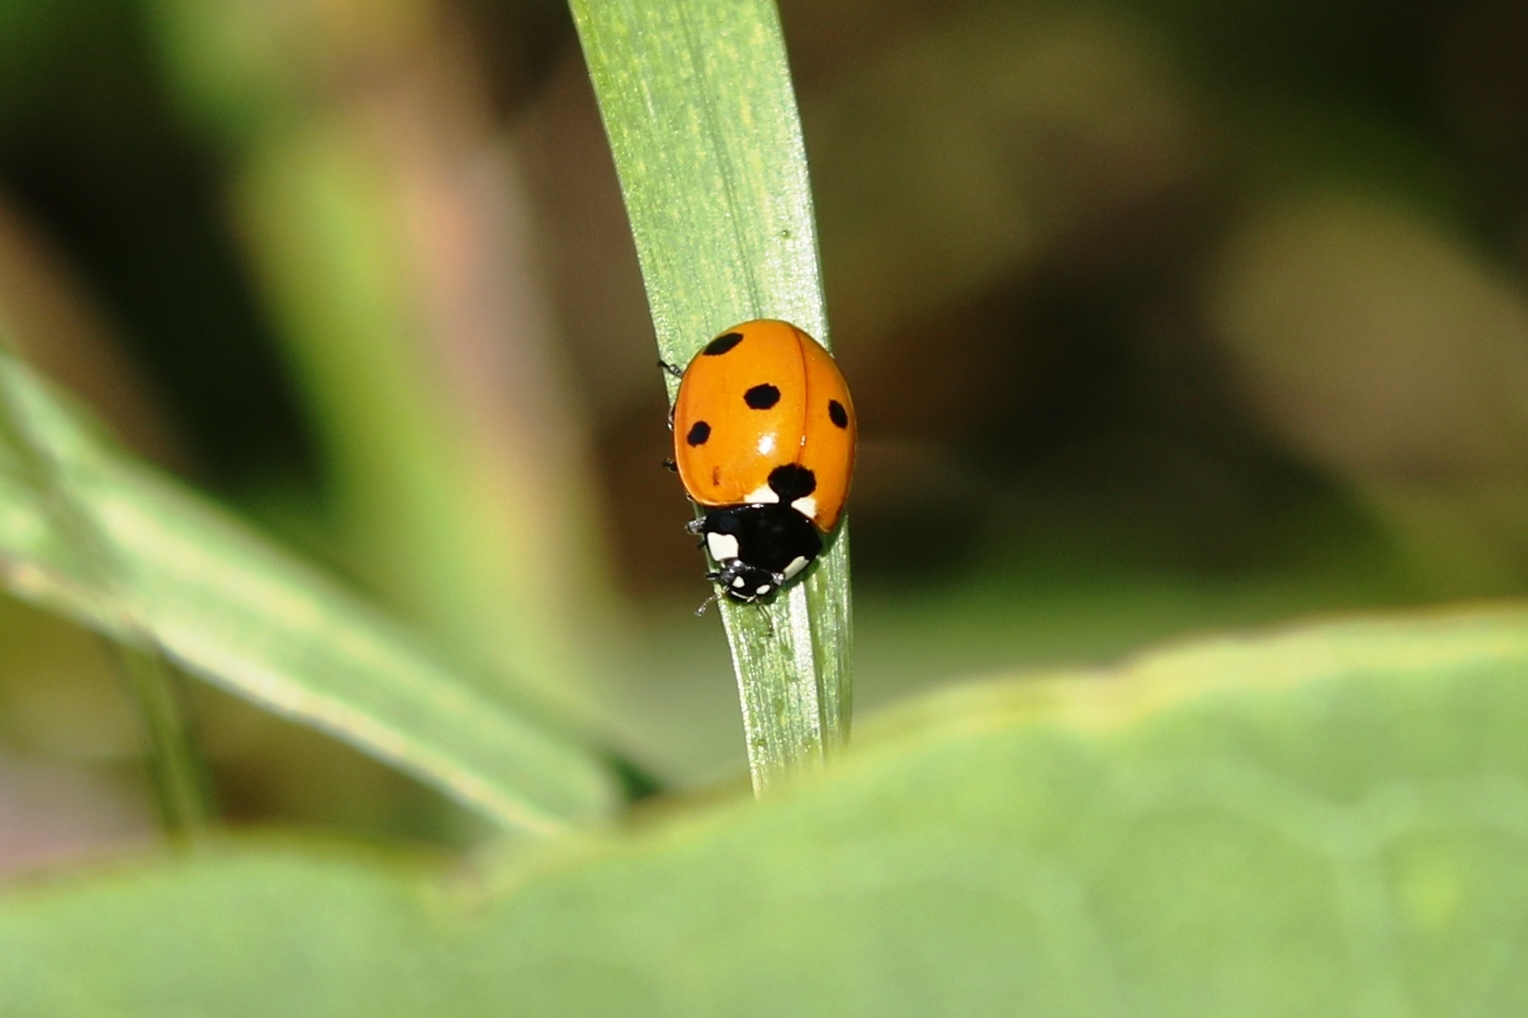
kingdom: Animalia
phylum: Arthropoda
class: Insecta
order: Coleoptera
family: Coccinellidae
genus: Coccinella
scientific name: Coccinella septempunctata
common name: Sevenspotted lady beetle
